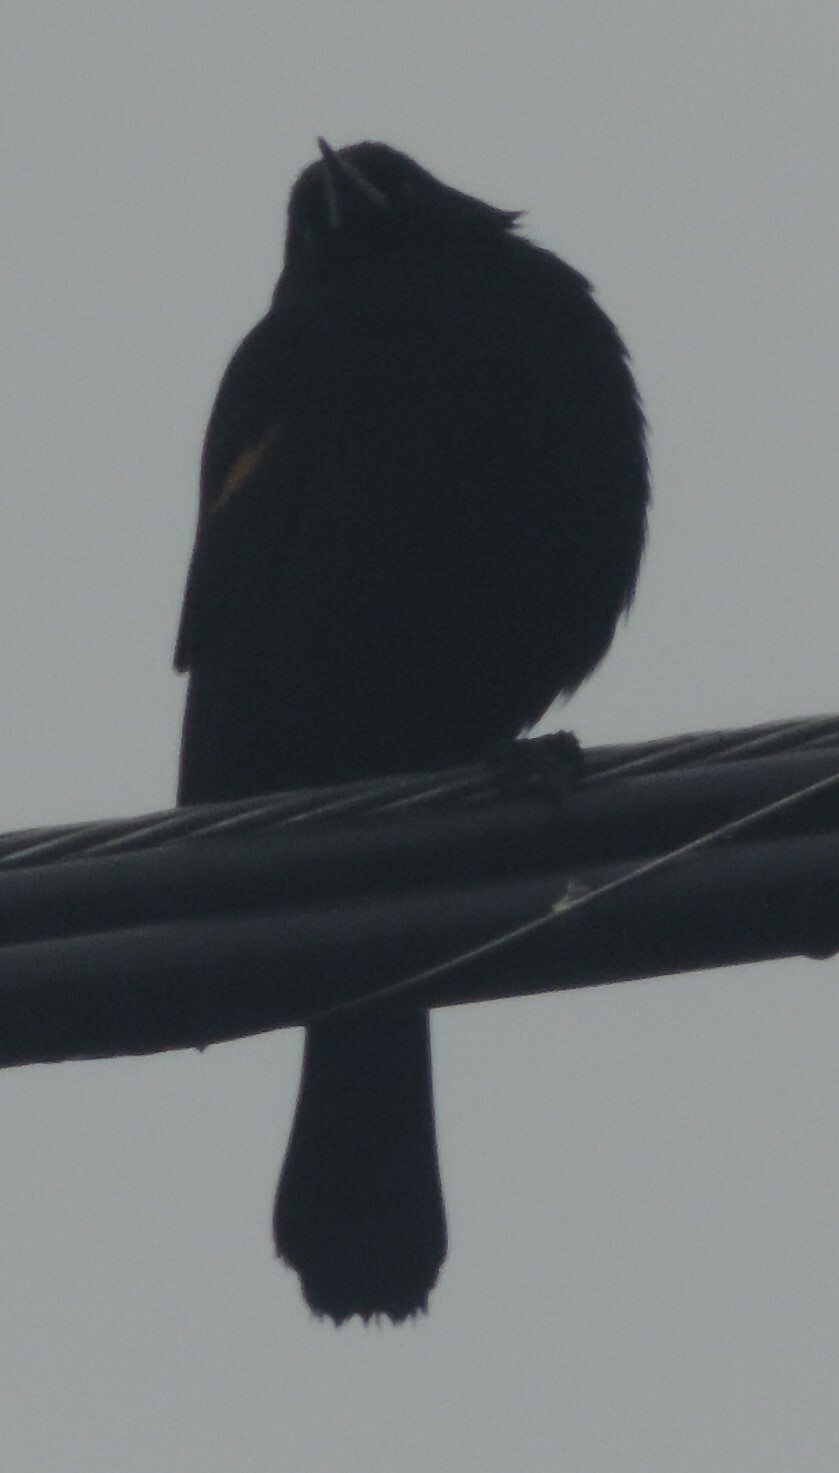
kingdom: Animalia
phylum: Chordata
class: Aves
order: Passeriformes
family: Icteridae
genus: Agelaius
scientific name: Agelaius phoeniceus
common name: Red-winged blackbird
